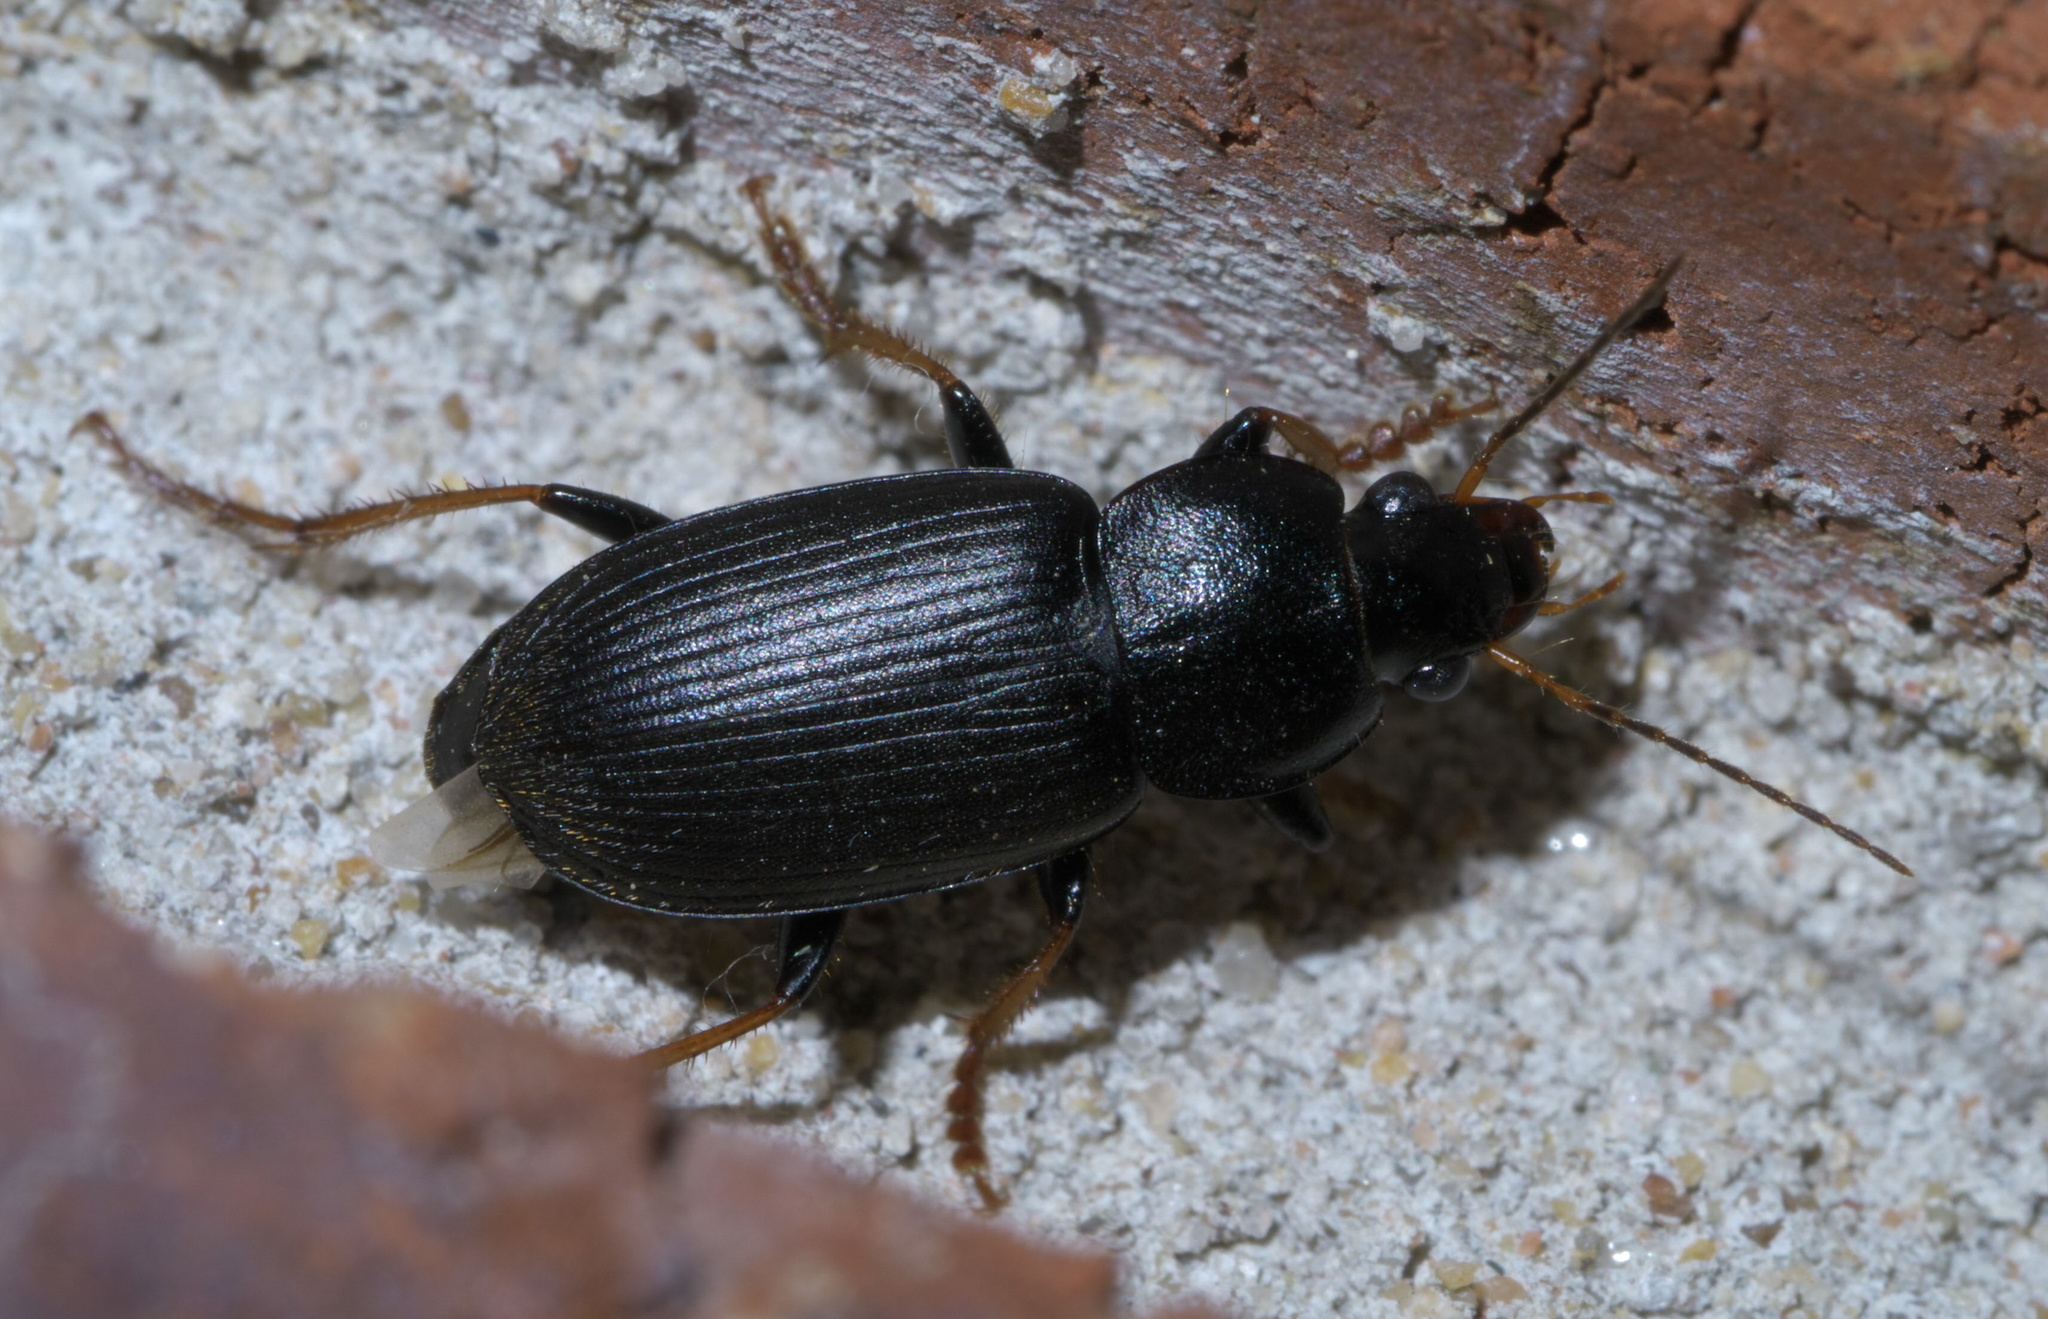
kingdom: Animalia
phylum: Arthropoda
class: Insecta
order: Coleoptera
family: Carabidae
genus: Amphasia
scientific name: Amphasia sericea
